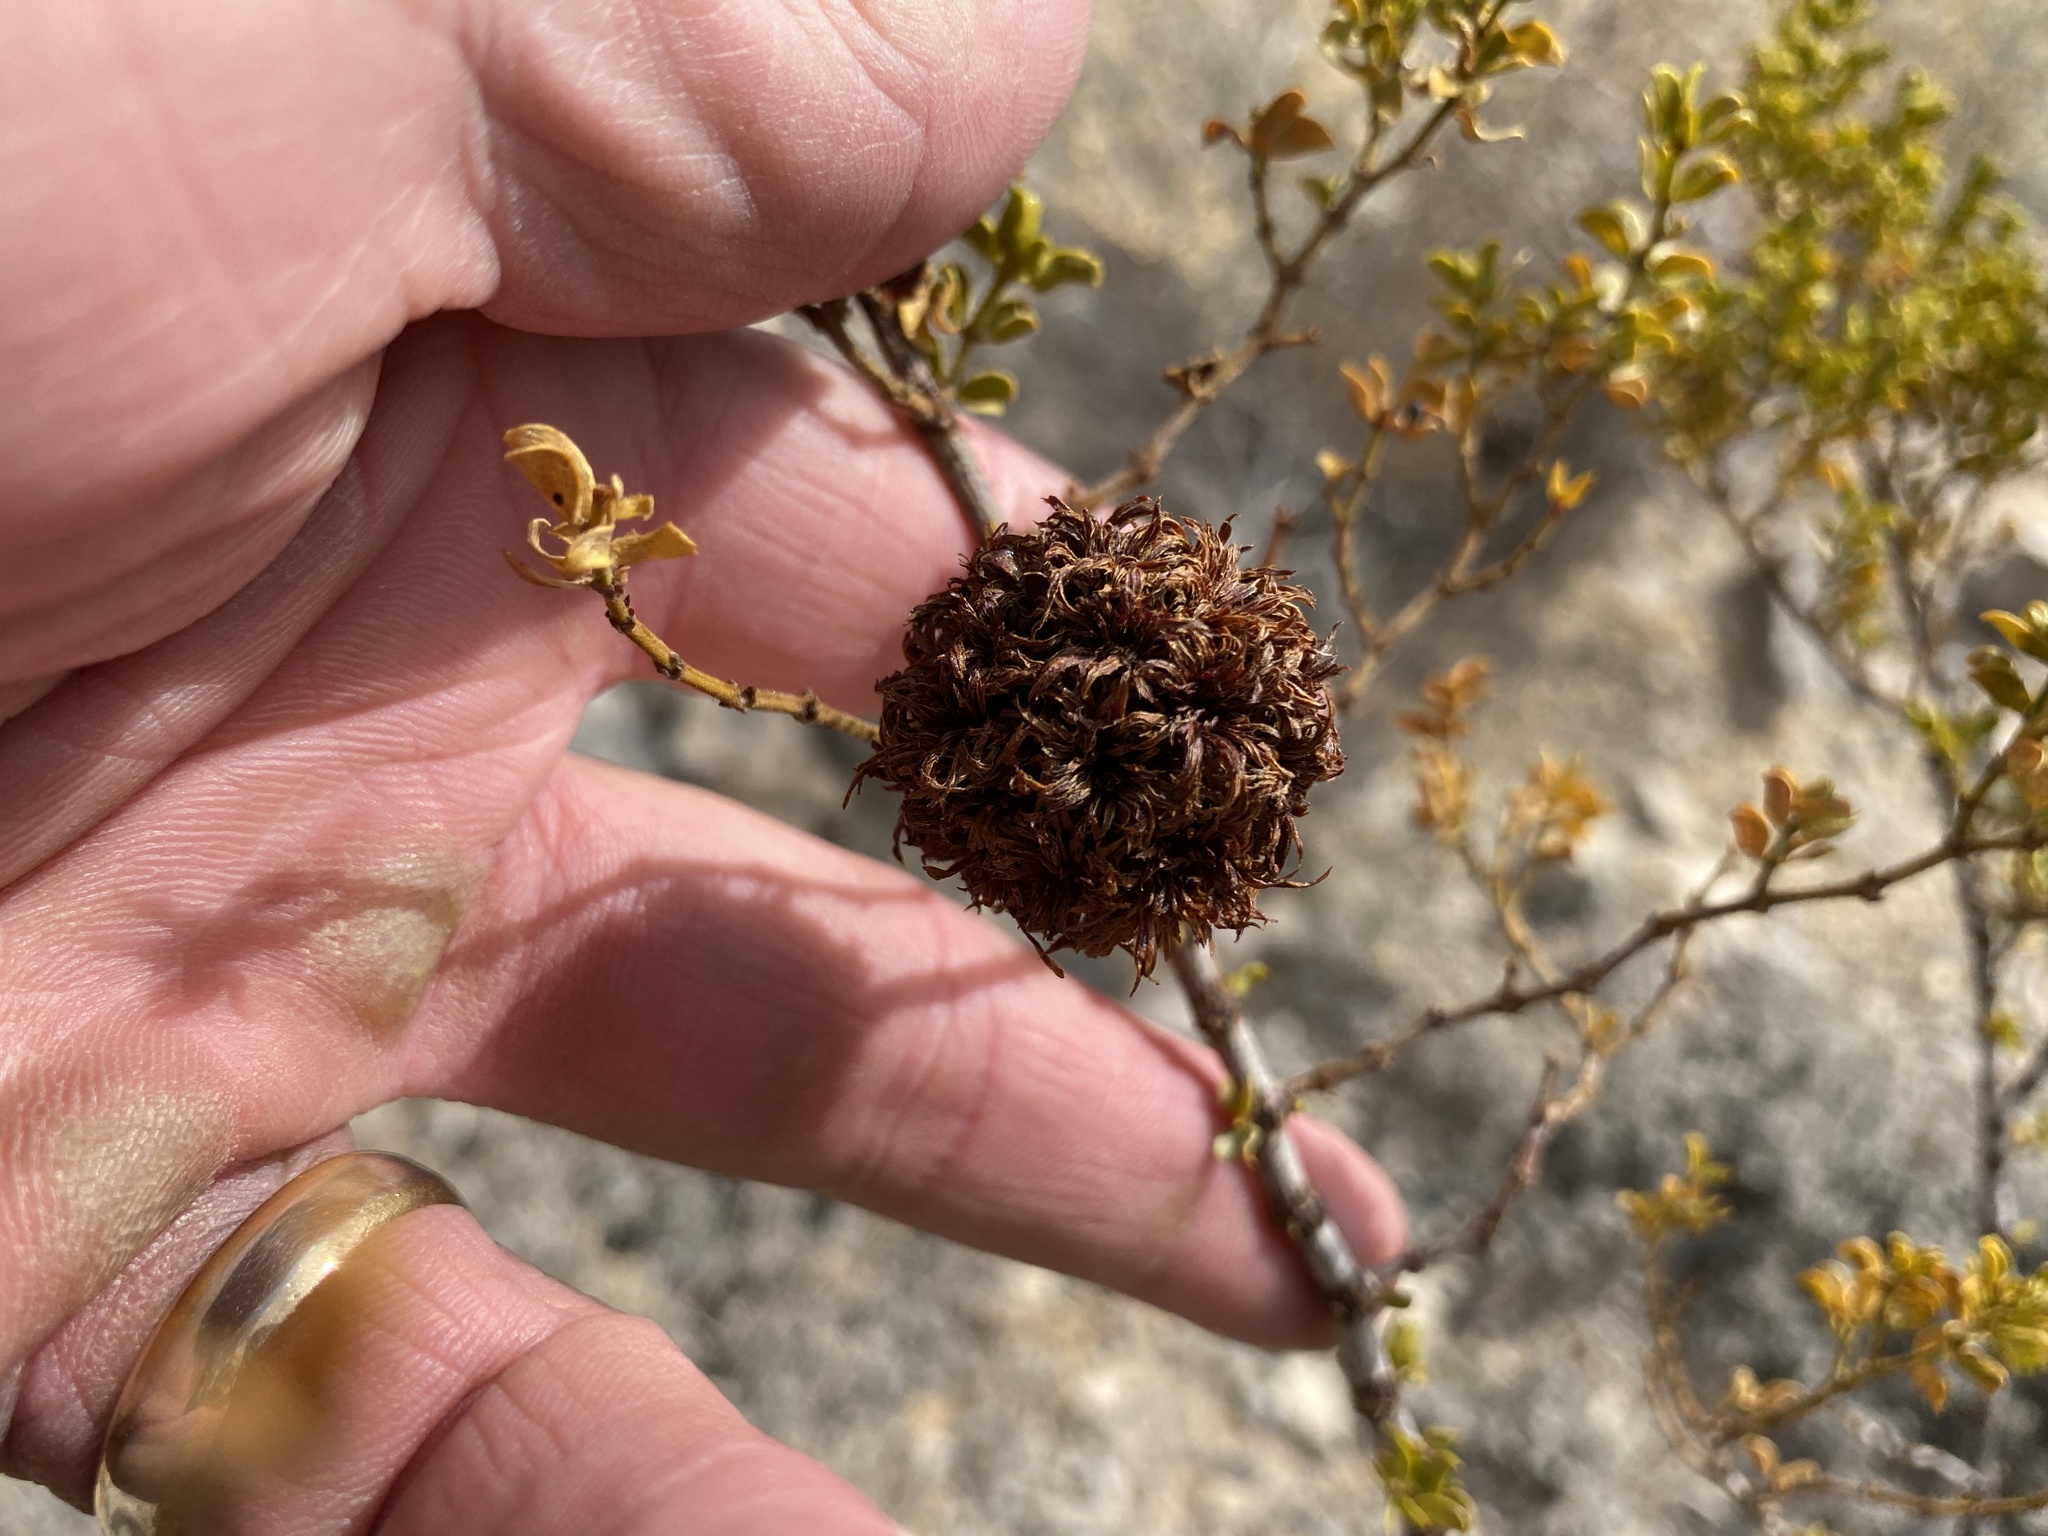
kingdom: Animalia
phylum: Arthropoda
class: Insecta
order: Diptera
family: Cecidomyiidae
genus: Asphondylia
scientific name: Asphondylia auripila
